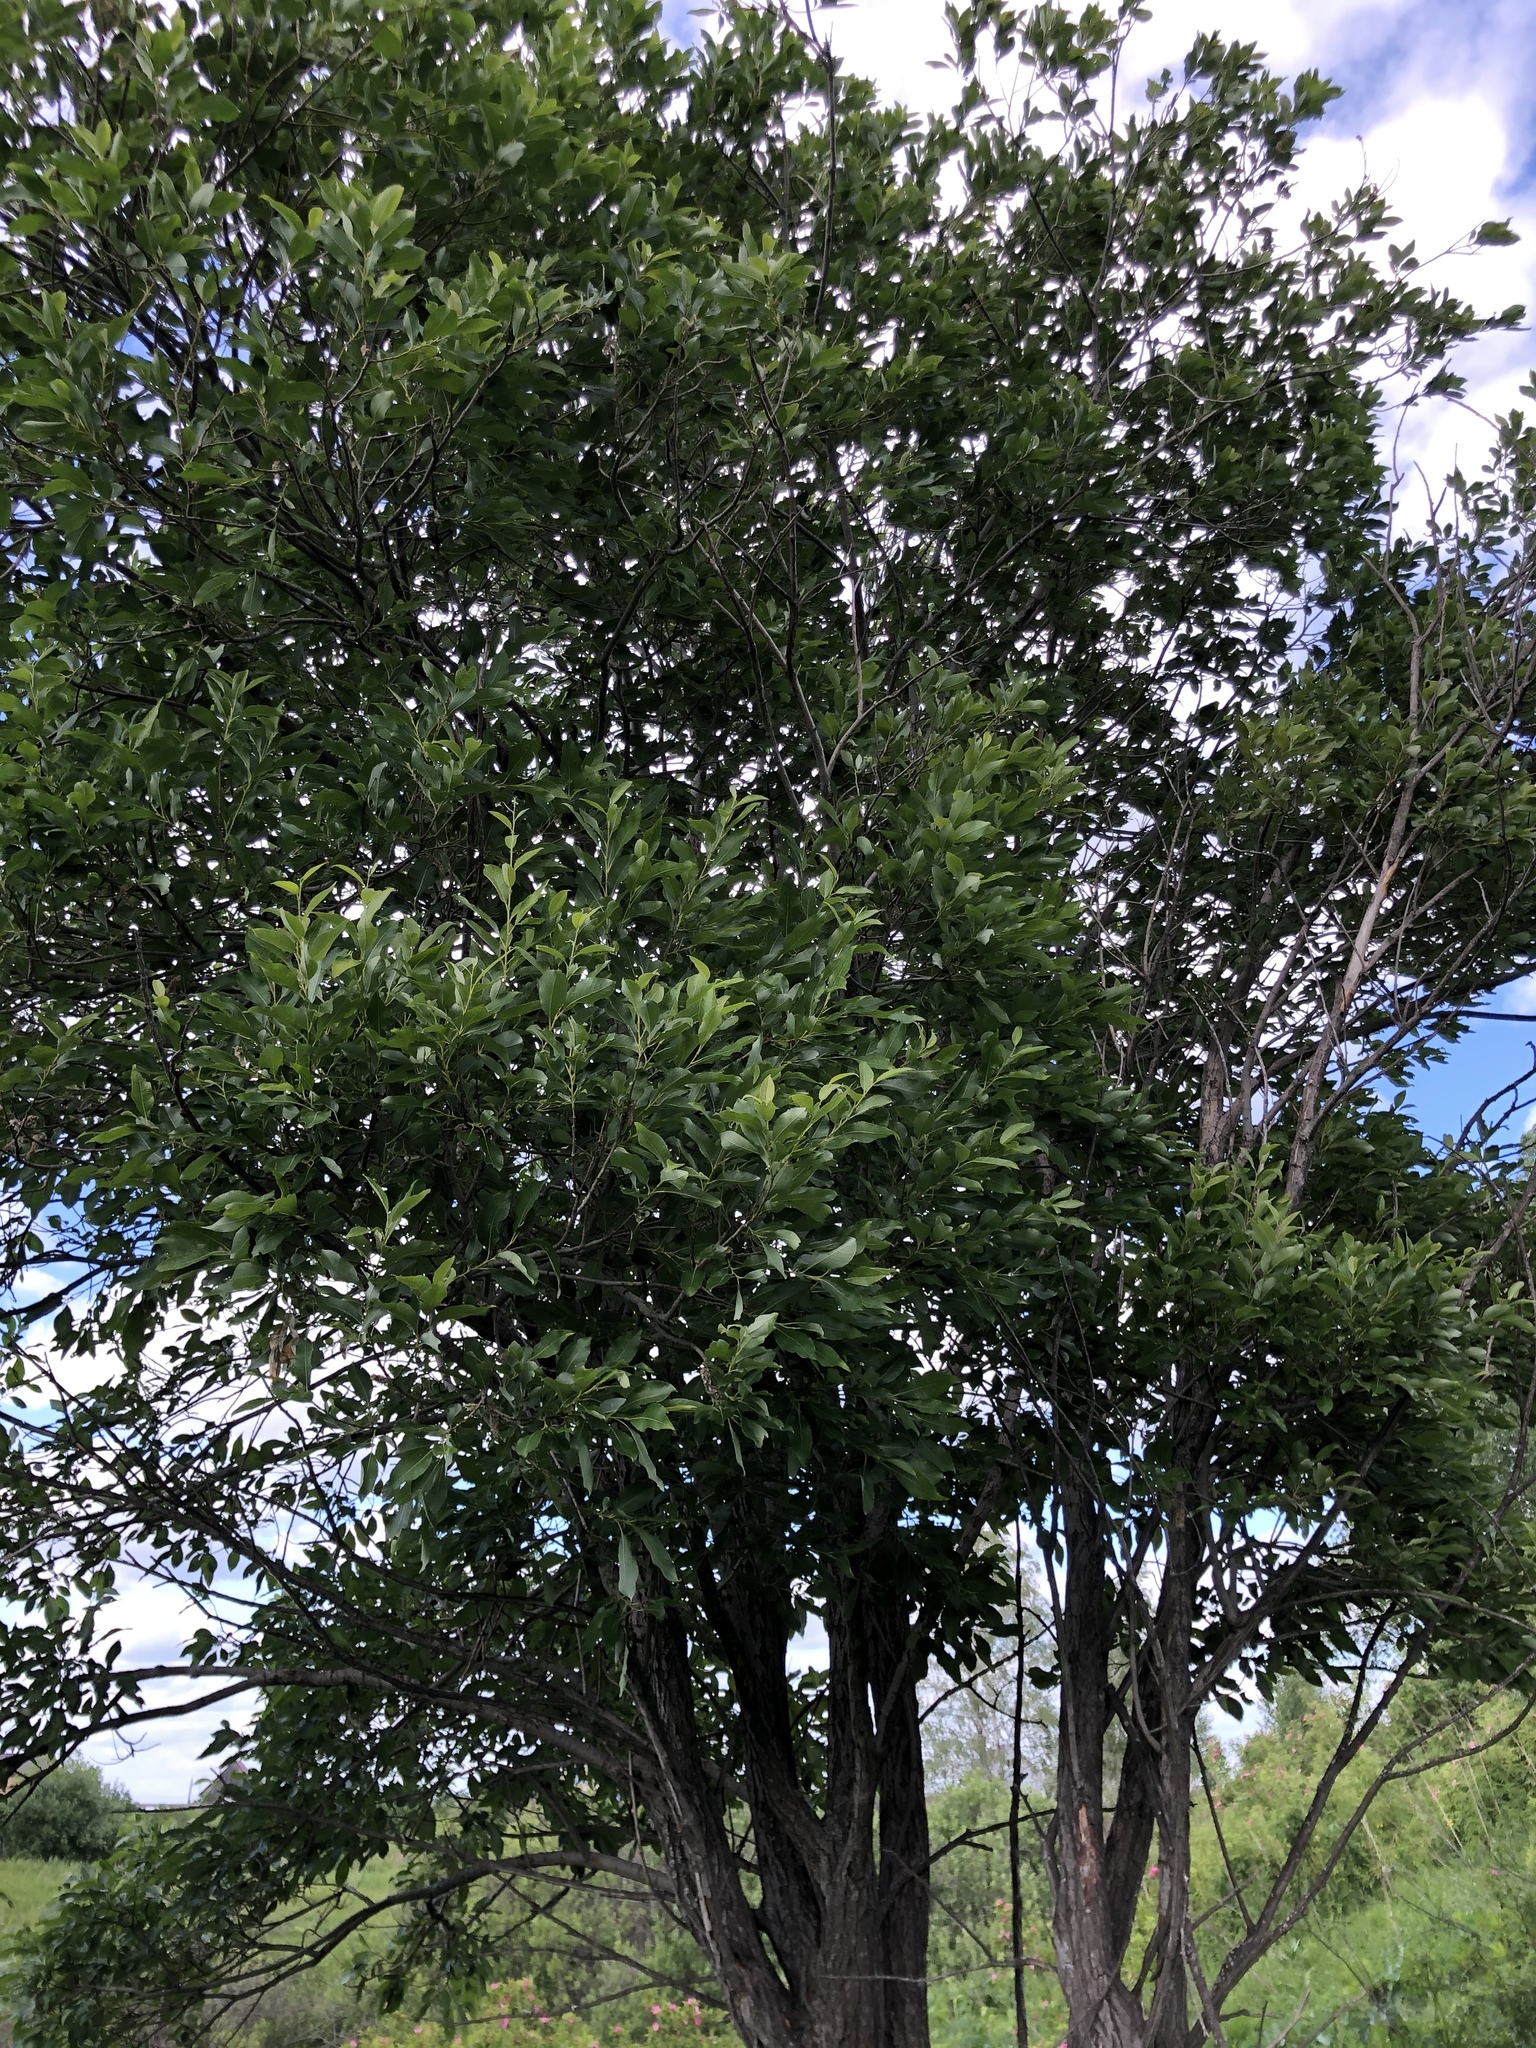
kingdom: Plantae
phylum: Tracheophyta
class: Magnoliopsida
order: Malpighiales
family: Salicaceae
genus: Salix
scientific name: Salix pentandra
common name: Bay willow
